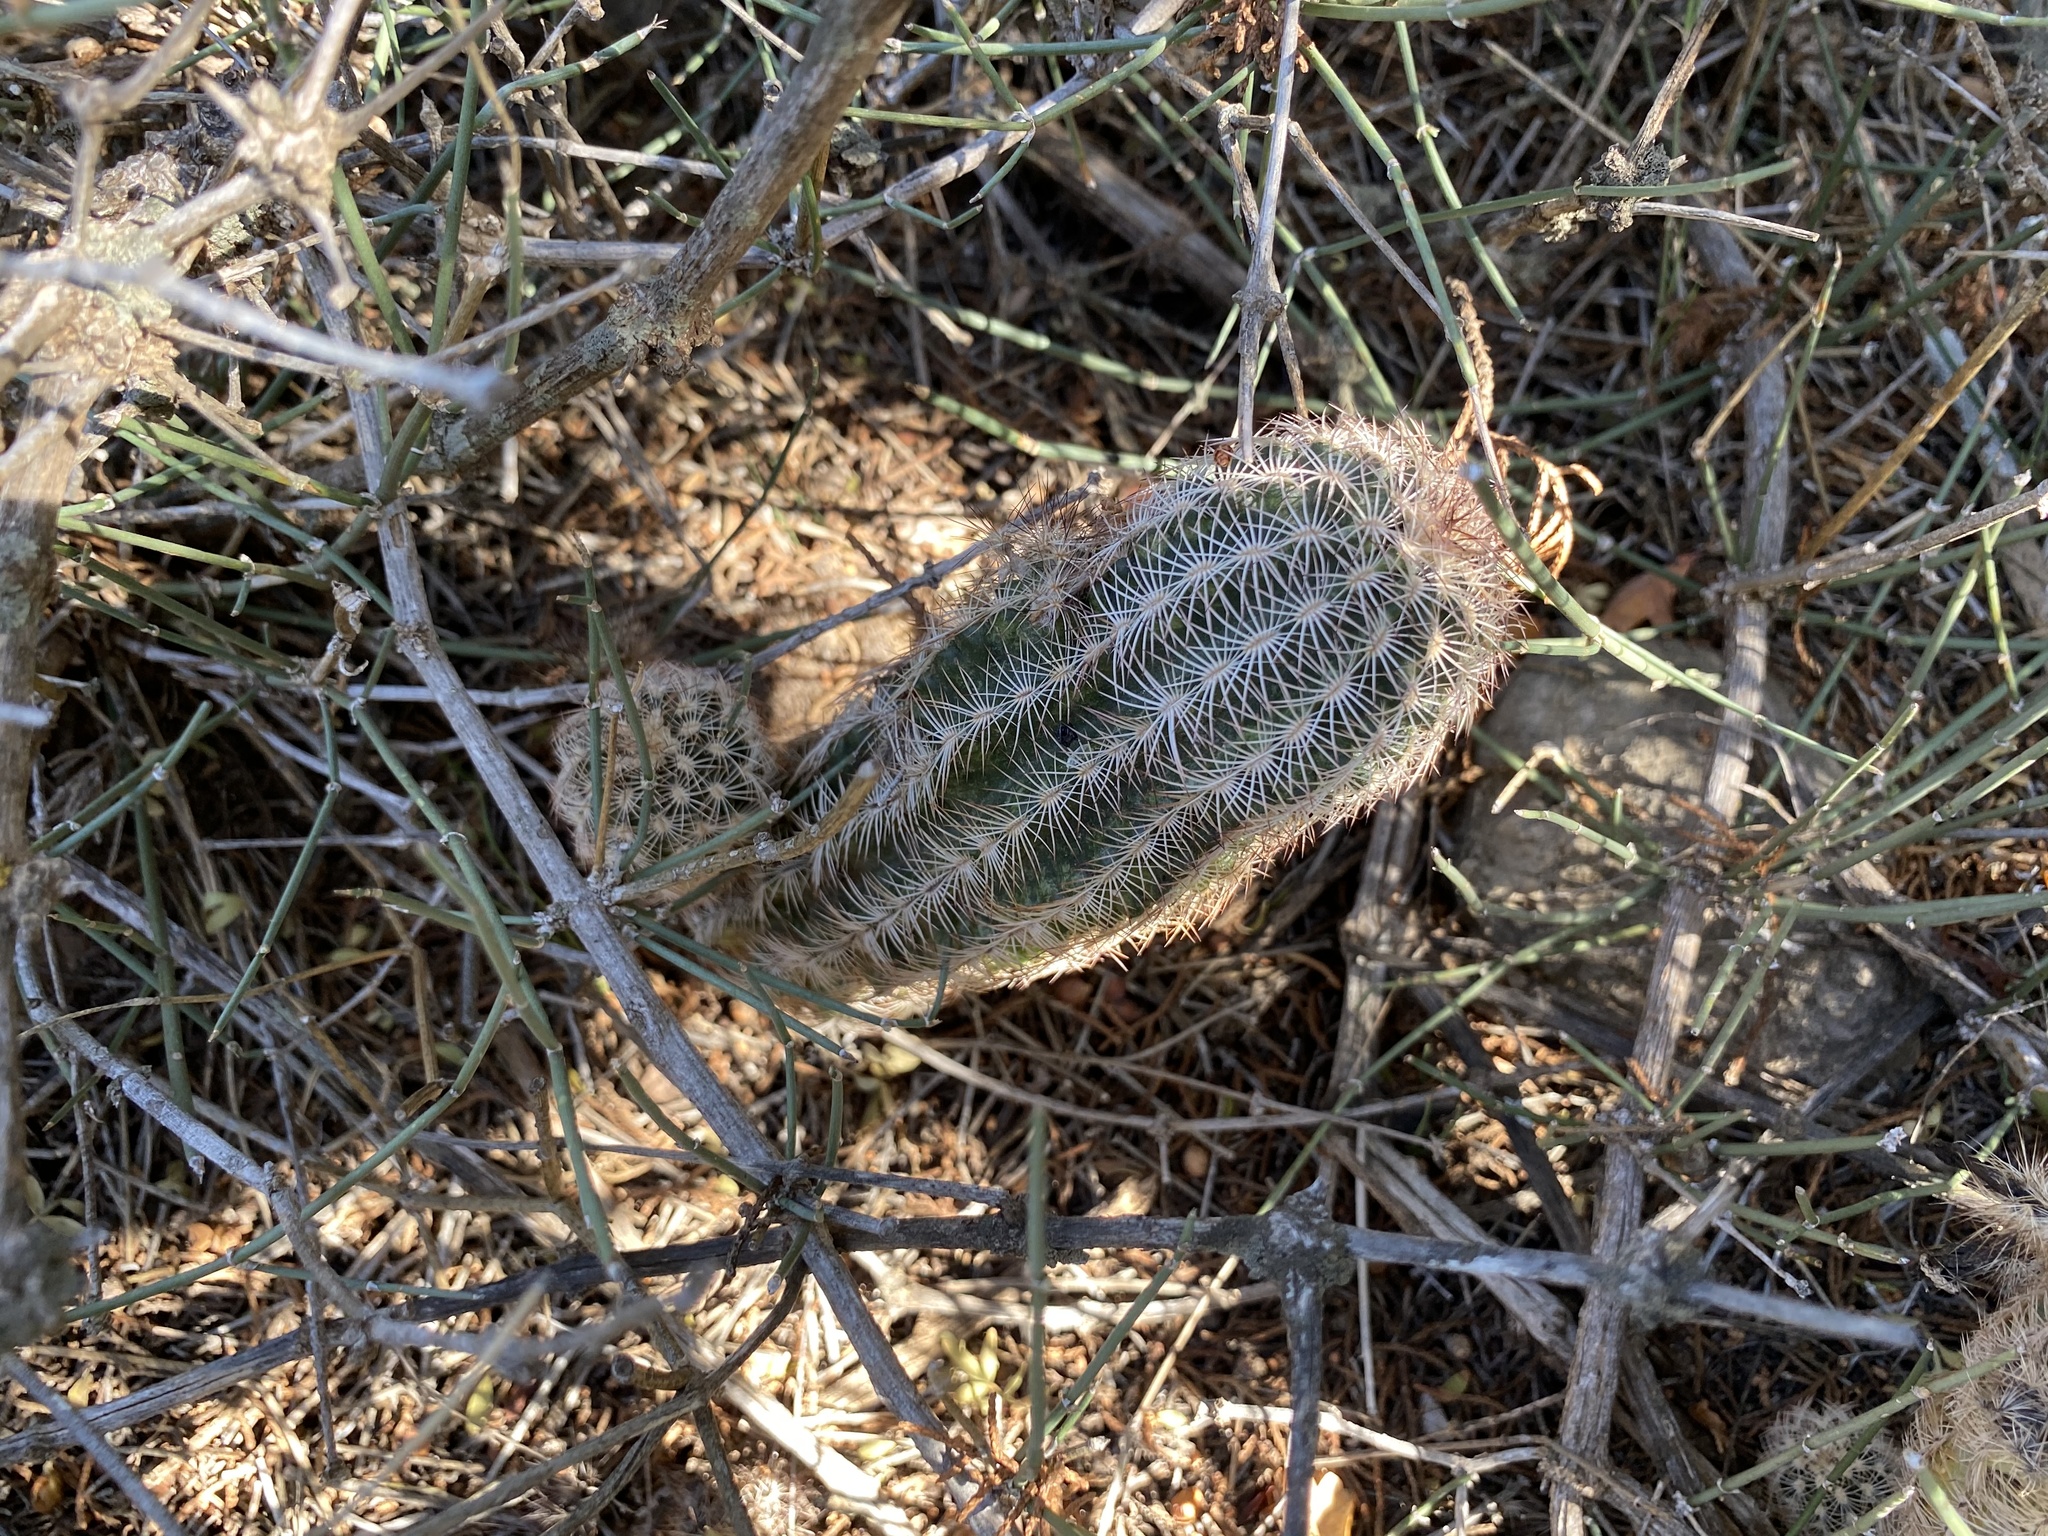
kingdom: Plantae
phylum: Tracheophyta
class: Magnoliopsida
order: Caryophyllales
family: Cactaceae
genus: Echinocereus
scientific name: Echinocereus reichenbachii
